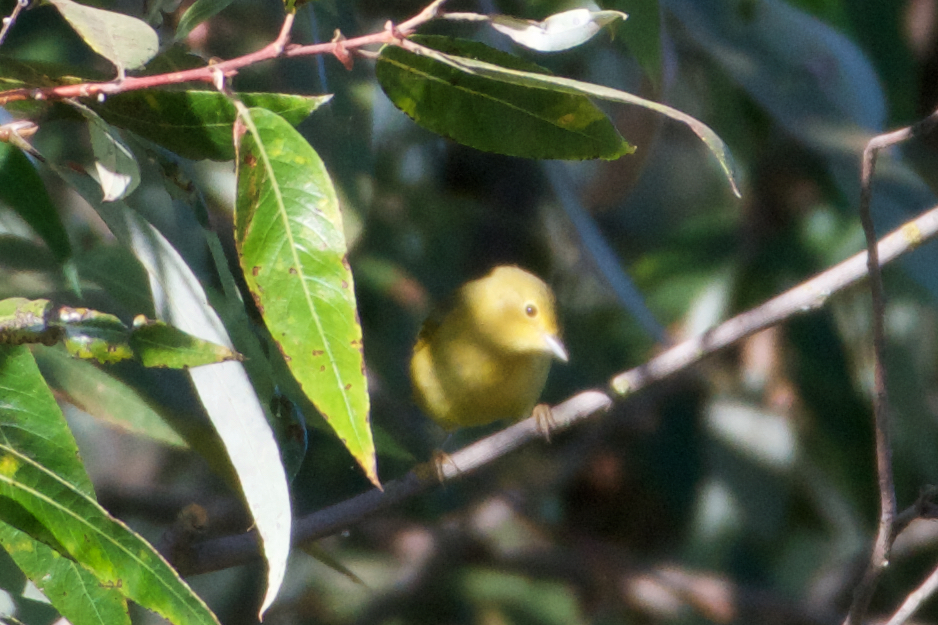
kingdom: Animalia
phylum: Chordata
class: Aves
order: Passeriformes
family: Parulidae
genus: Setophaga
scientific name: Setophaga petechia
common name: Yellow warbler
